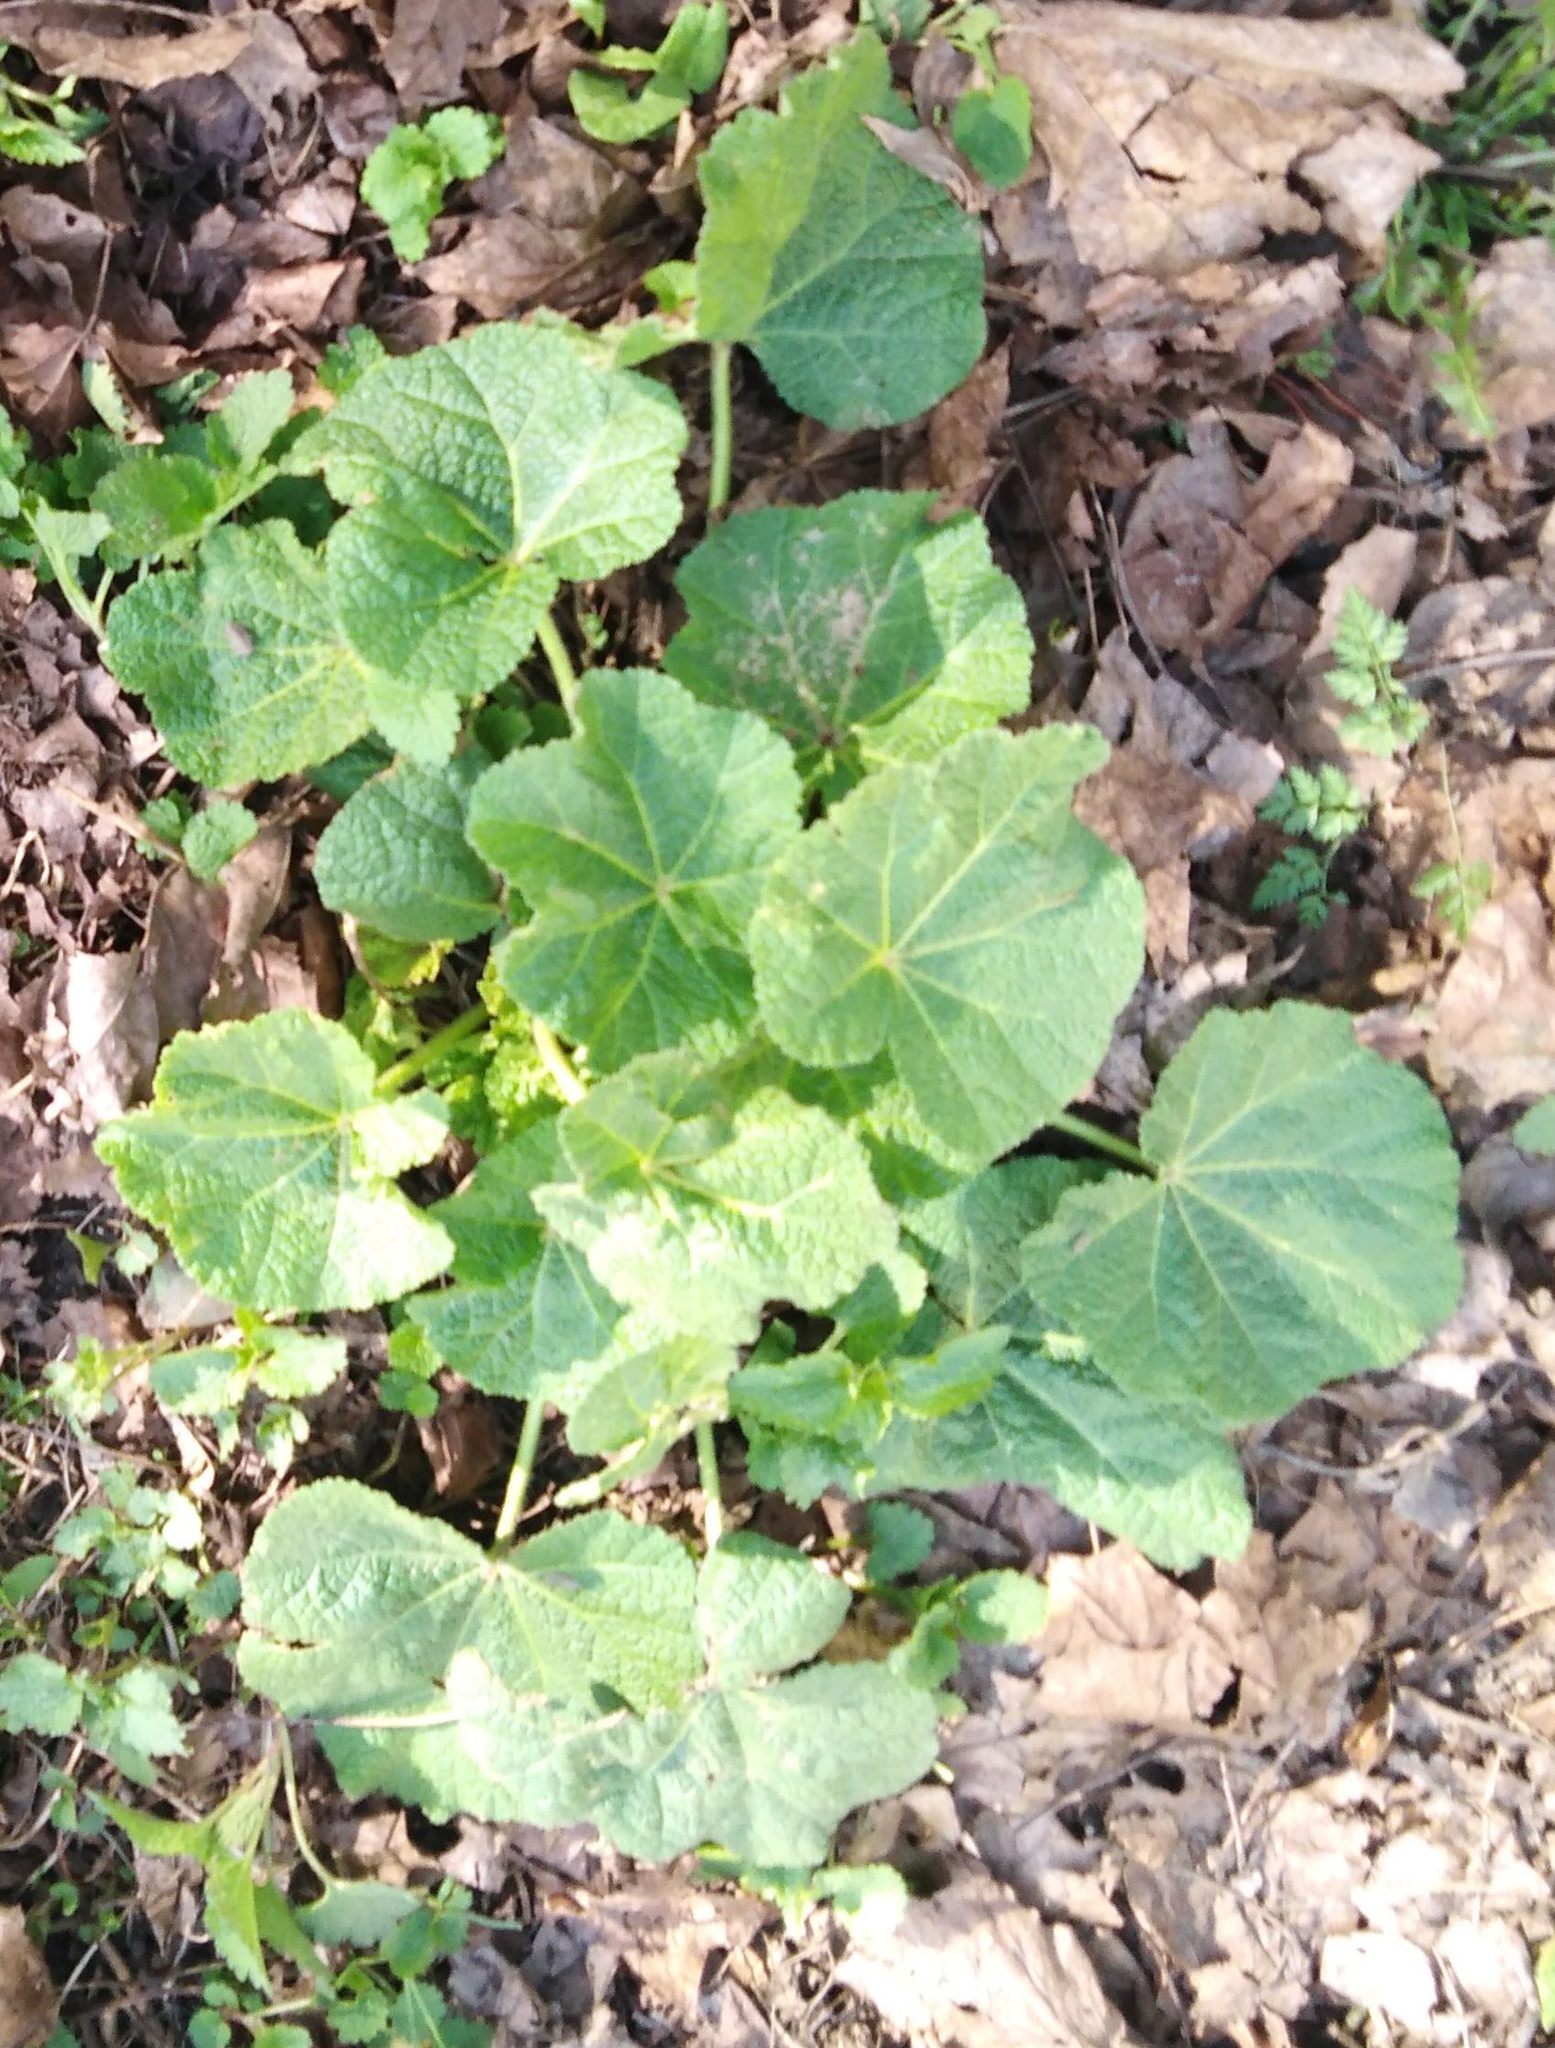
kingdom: Plantae
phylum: Tracheophyta
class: Magnoliopsida
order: Malvales
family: Malvaceae
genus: Malva
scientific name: Malva thuringiaca
